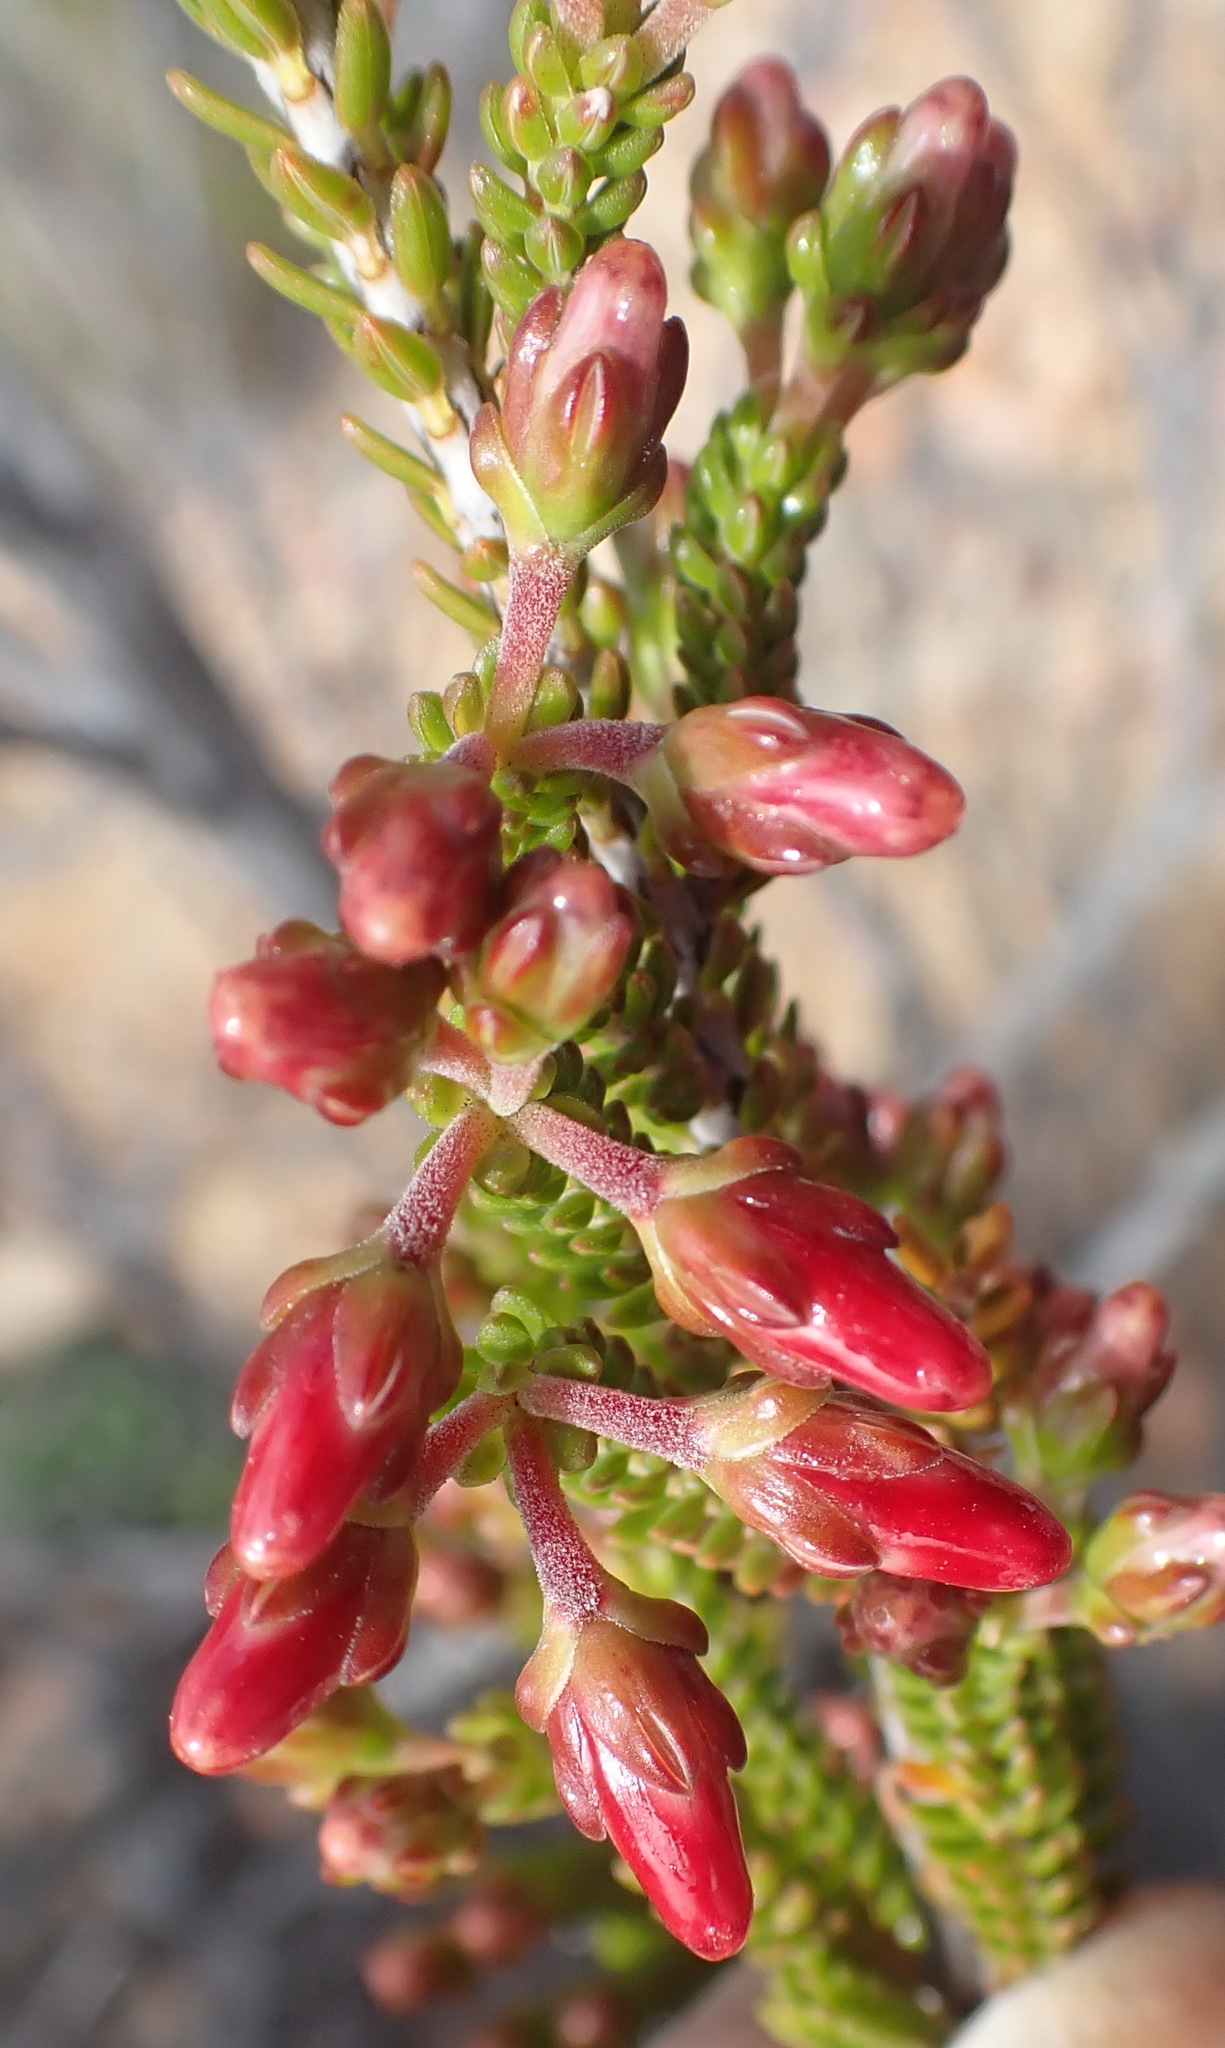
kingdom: Plantae
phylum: Tracheophyta
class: Magnoliopsida
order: Ericales
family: Ericaceae
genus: Erica
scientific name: Erica diaphana
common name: Heath
